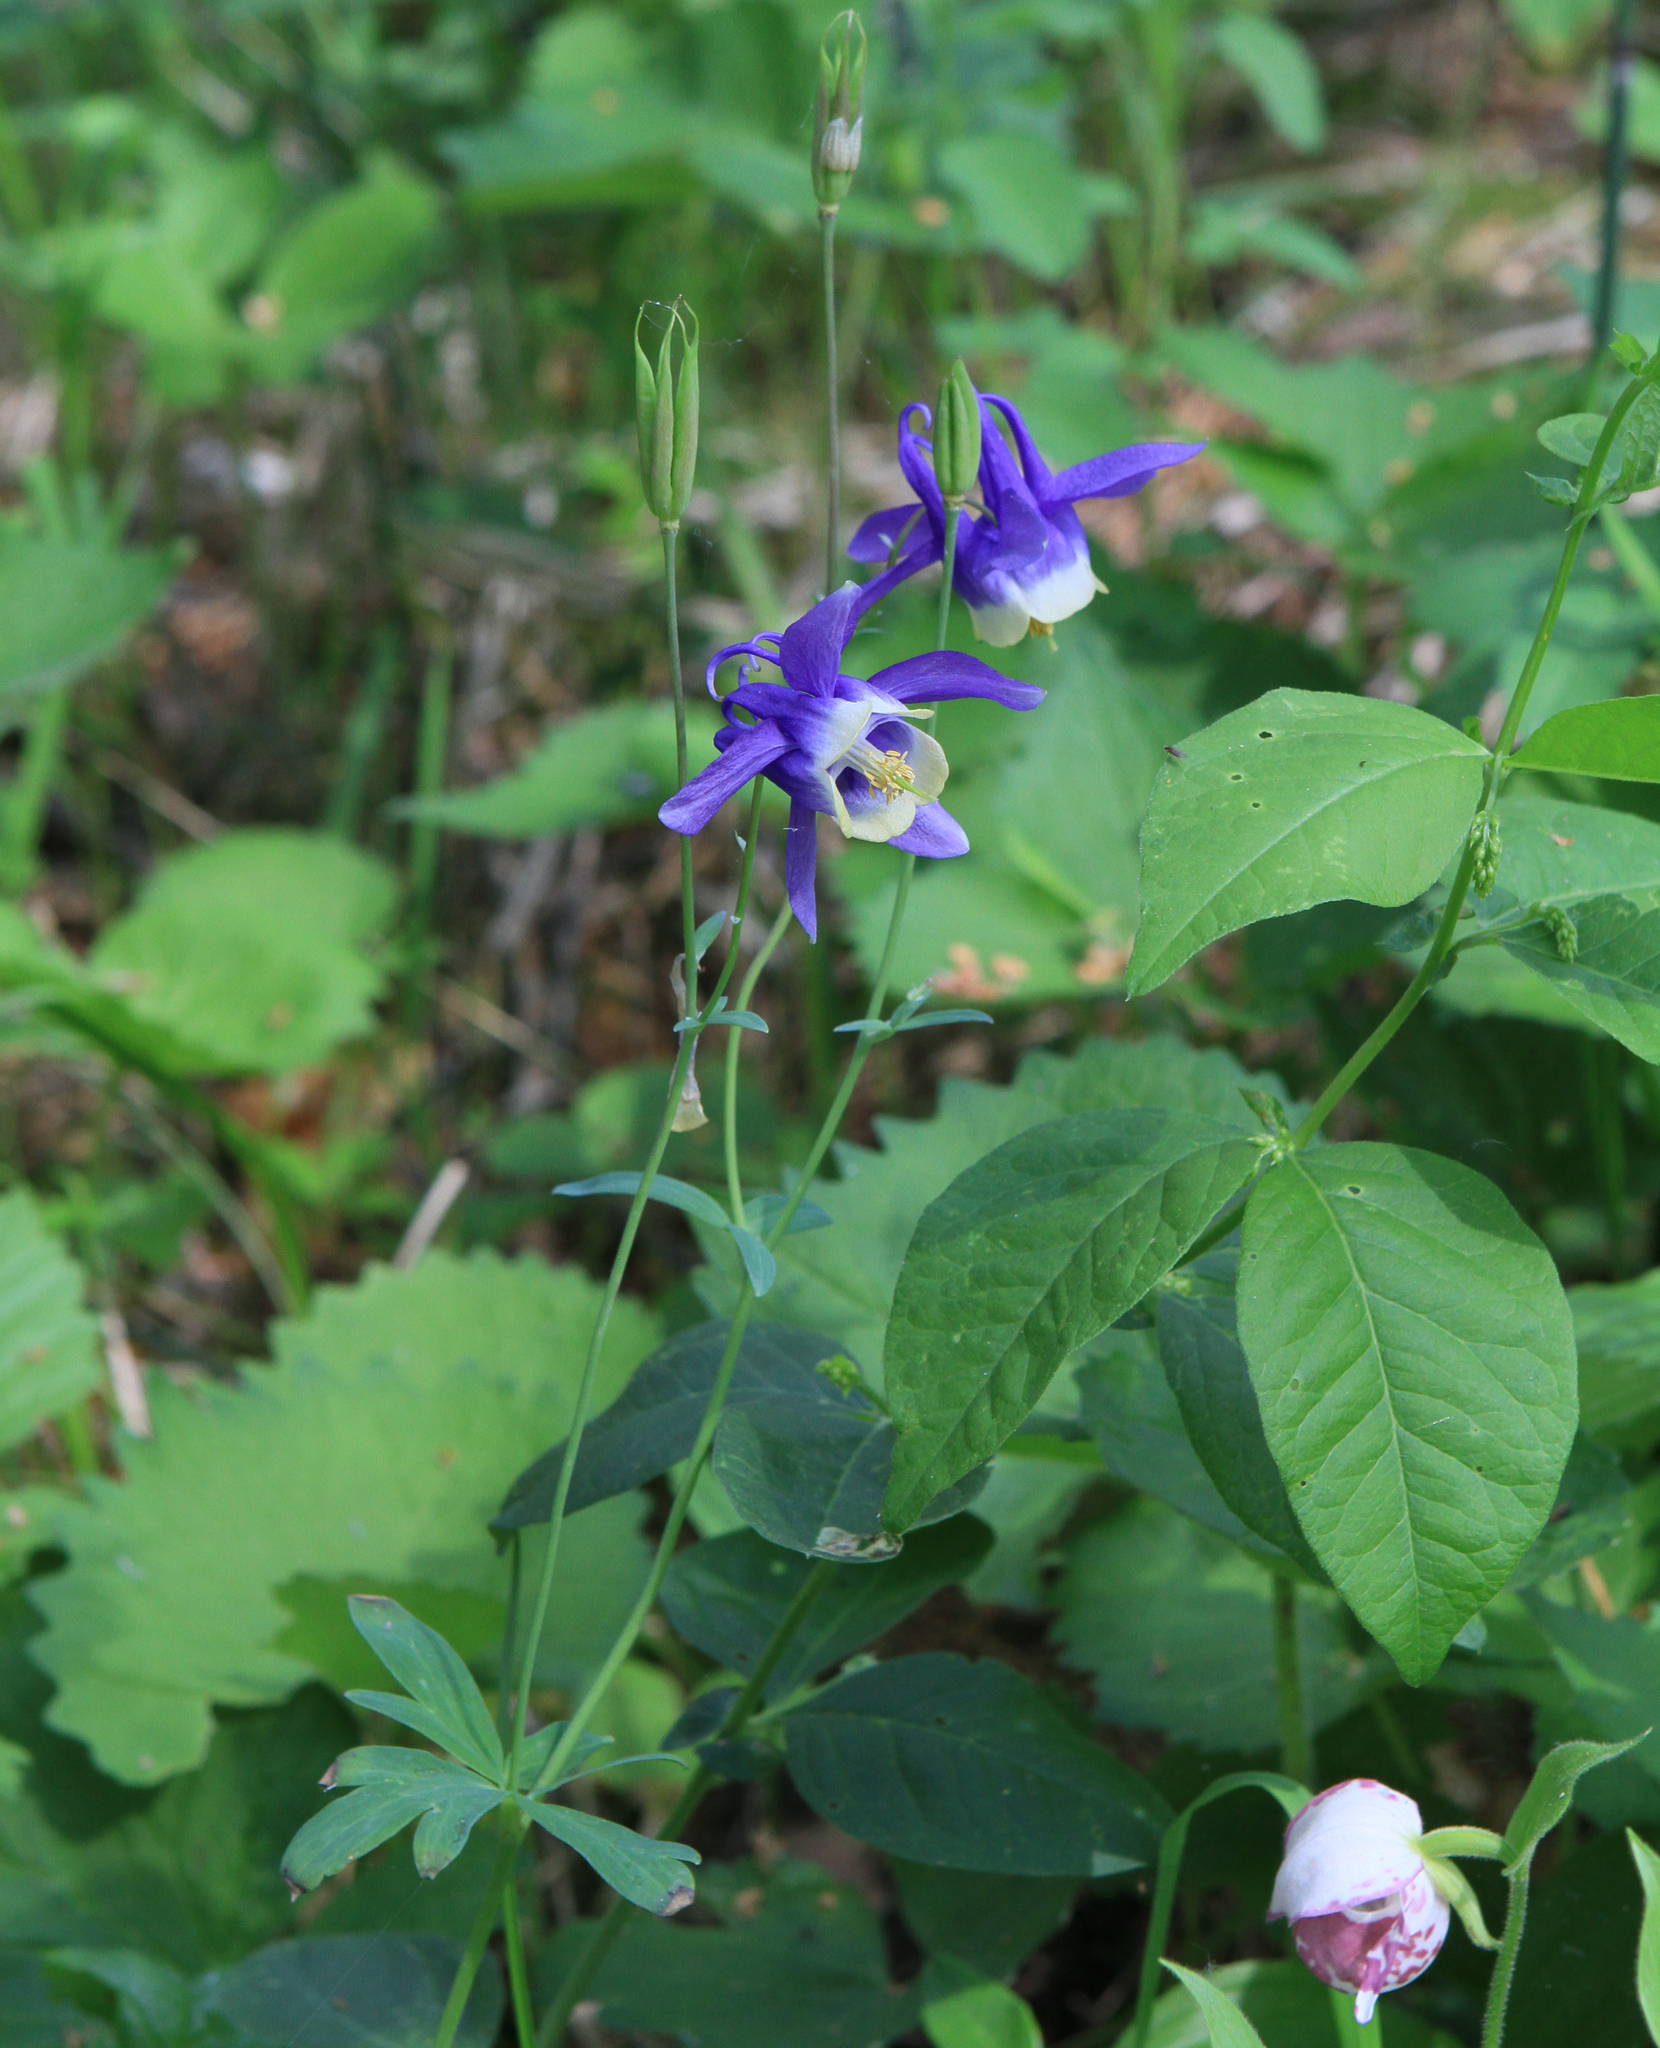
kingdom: Plantae
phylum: Tracheophyta
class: Magnoliopsida
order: Ranunculales
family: Ranunculaceae
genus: Aquilegia
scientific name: Aquilegia sibirica
